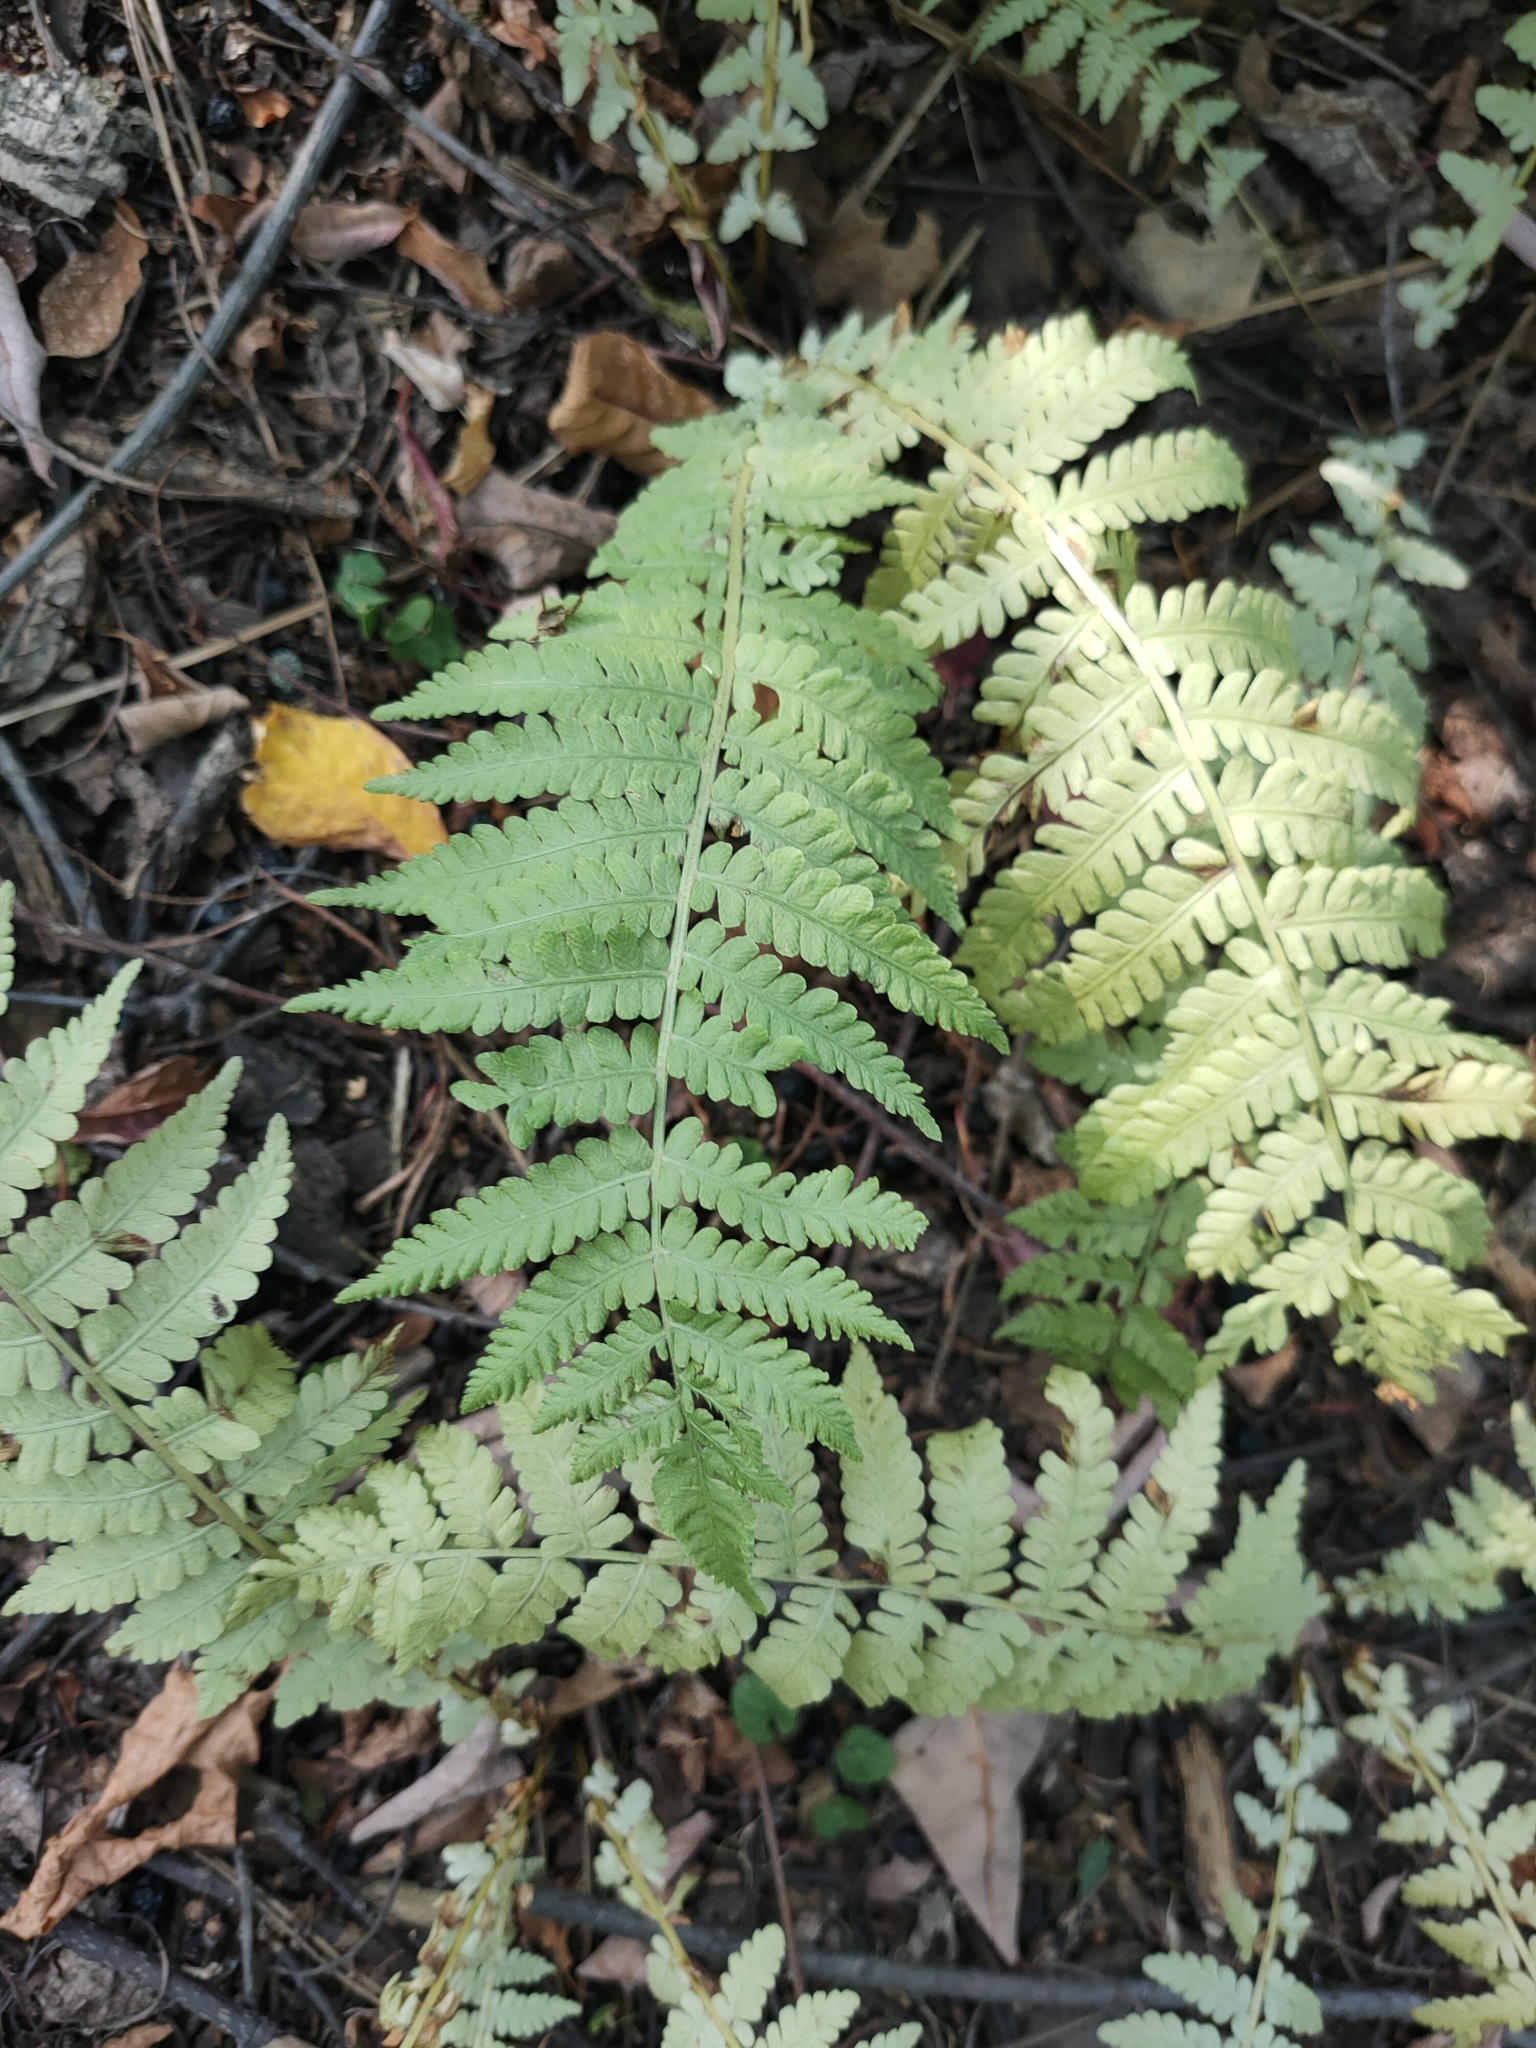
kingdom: Plantae
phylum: Tracheophyta
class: Polypodiopsida
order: Polypodiales
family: Onocleaceae
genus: Matteuccia
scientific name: Matteuccia struthiopteris
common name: Ostrich fern
